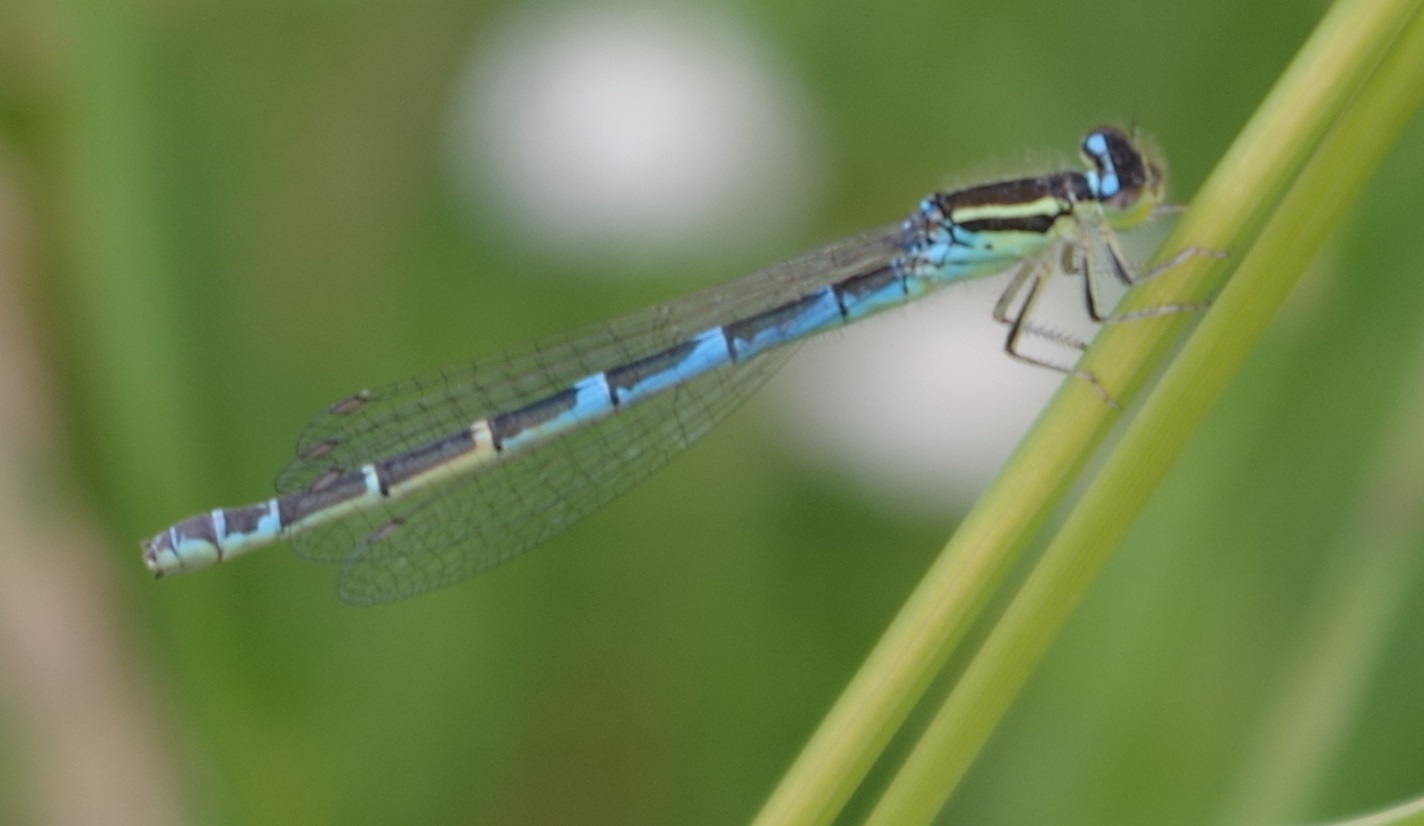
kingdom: Animalia
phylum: Arthropoda
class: Insecta
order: Odonata
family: Coenagrionidae
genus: Coenagrion
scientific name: Coenagrion scitulum
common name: Dainty bluet
